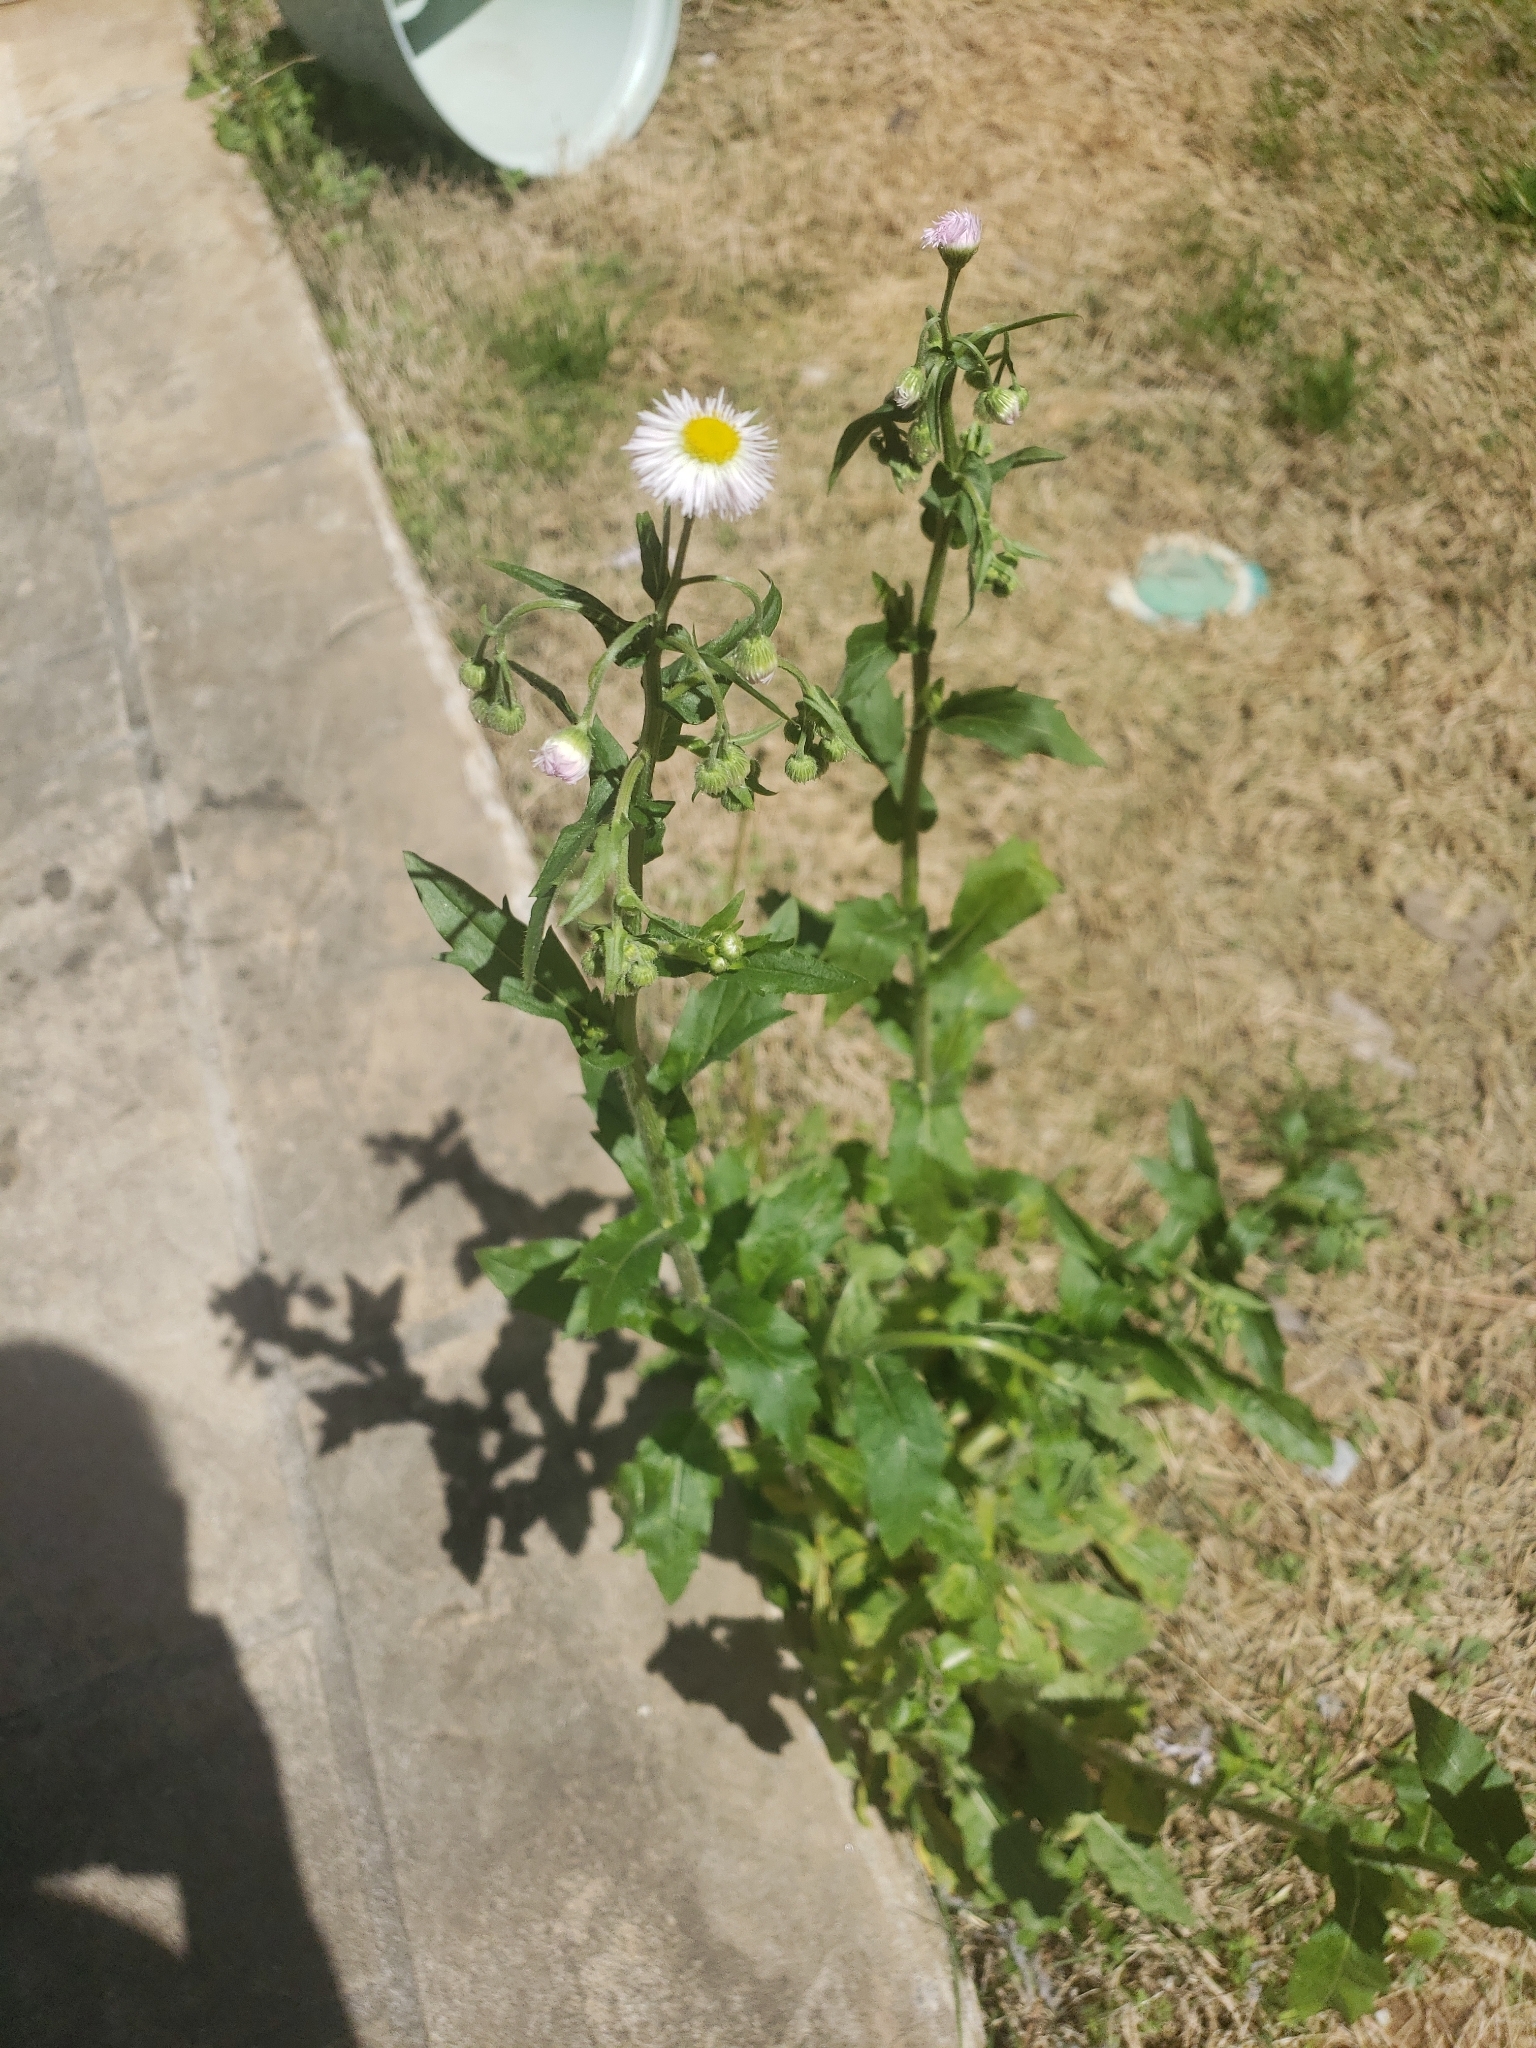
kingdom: Plantae
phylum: Tracheophyta
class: Magnoliopsida
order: Asterales
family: Asteraceae
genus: Erigeron
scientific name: Erigeron philadelphicus
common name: Robin's-plantain
